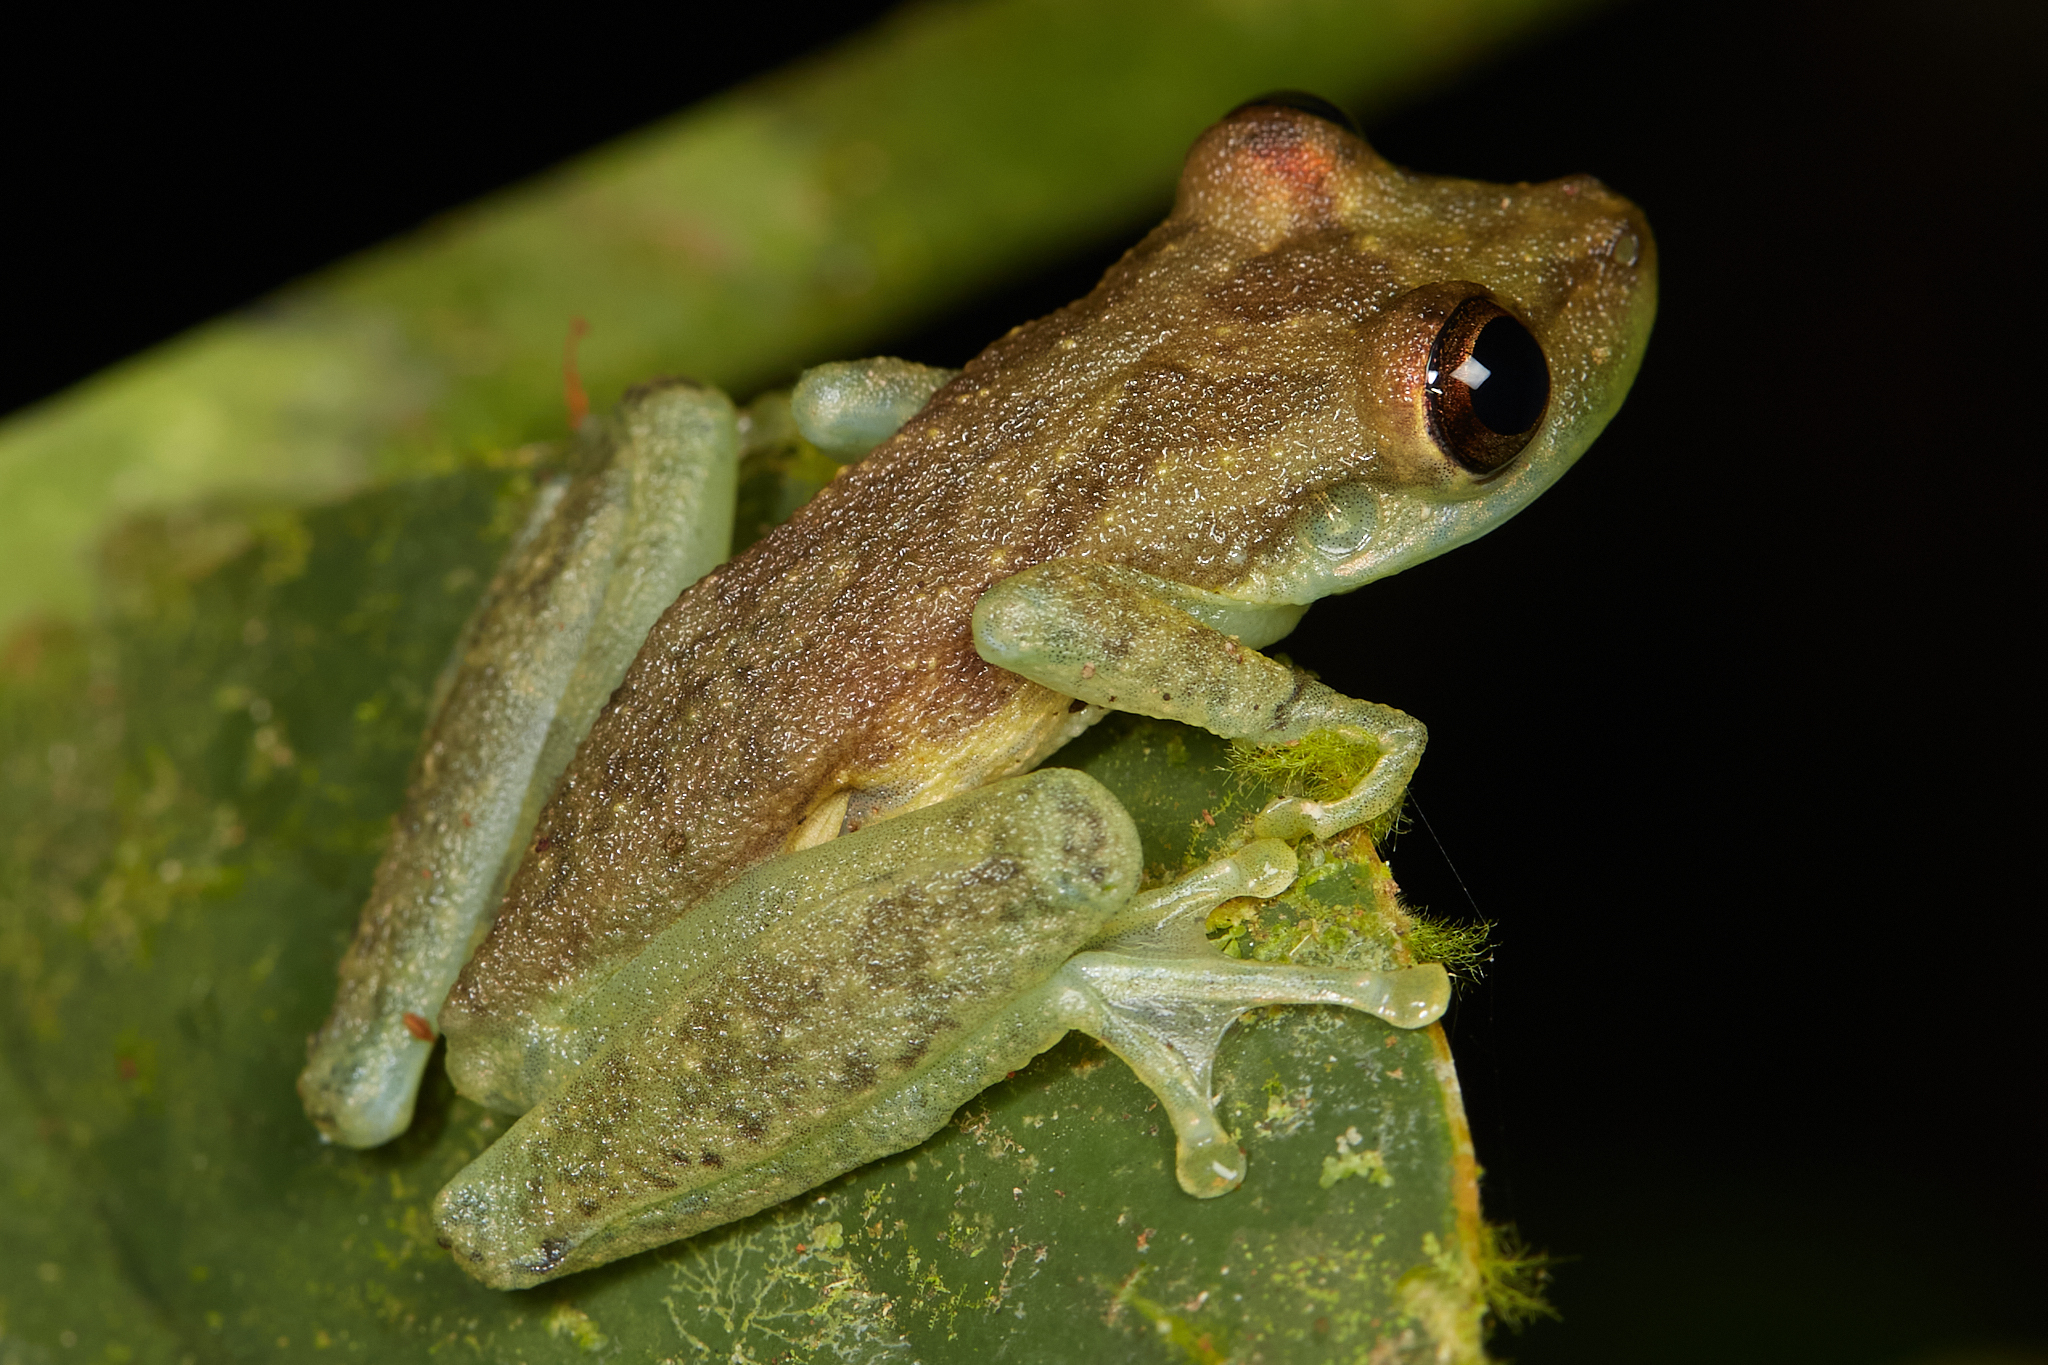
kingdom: Animalia
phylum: Chordata
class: Amphibia
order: Anura
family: Hylidae
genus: Scinax
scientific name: Scinax elaeochroa
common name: Sipurio snouted treefrog
